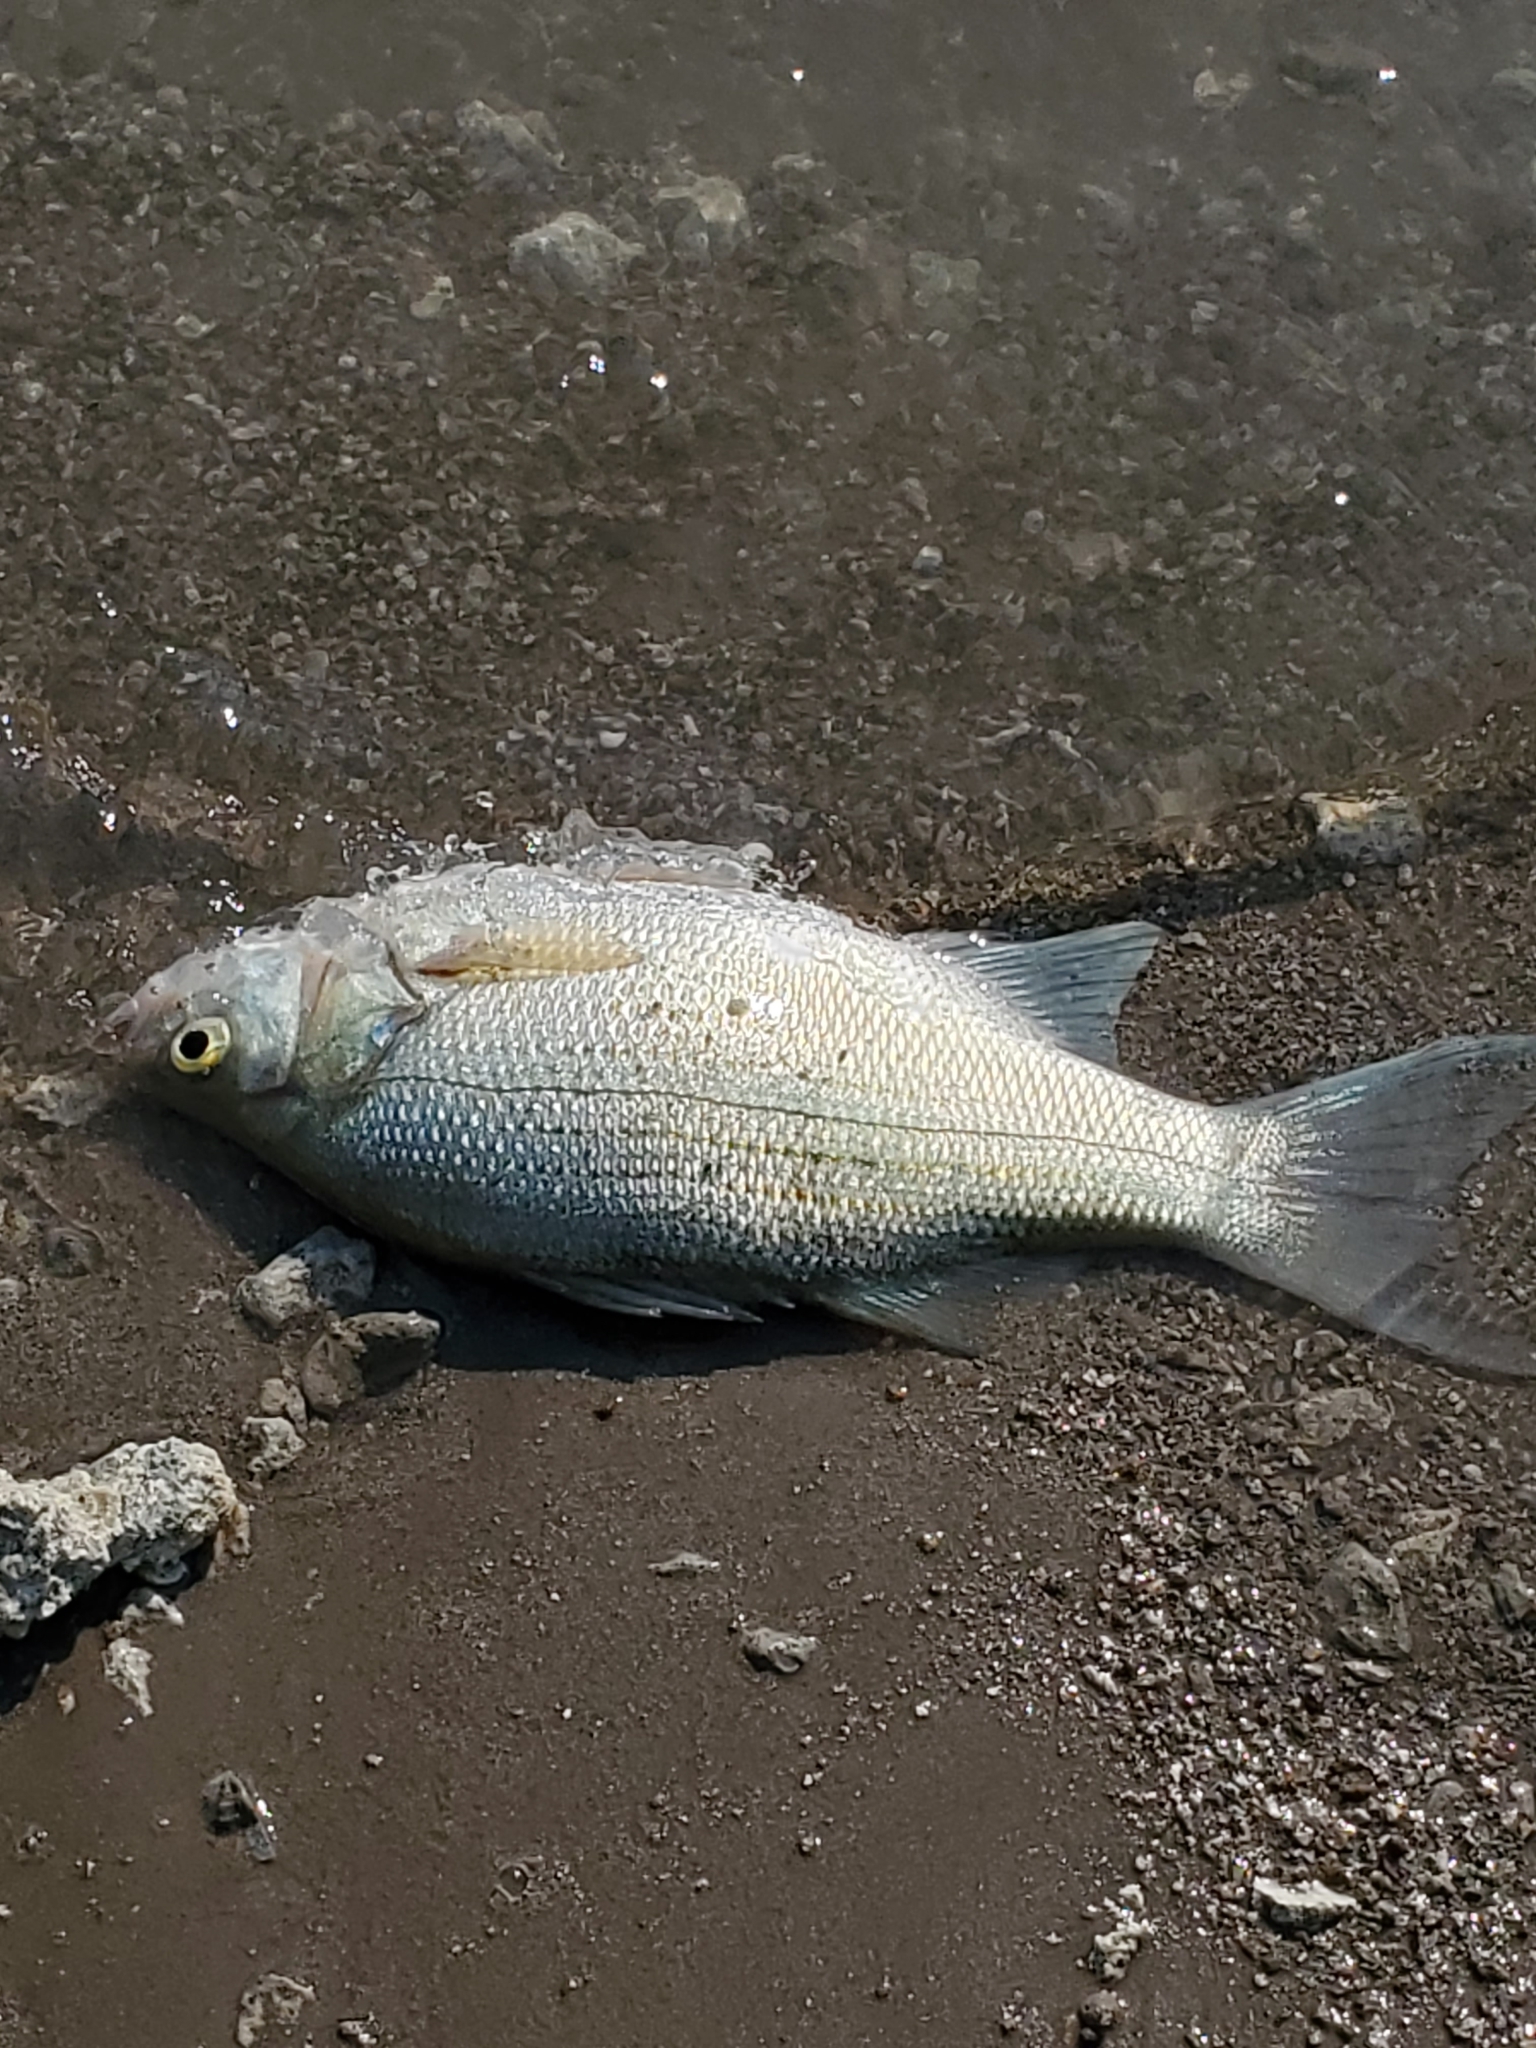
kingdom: Animalia
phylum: Chordata
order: Perciformes
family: Moronidae
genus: Morone
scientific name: Morone chrysops
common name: White bass
